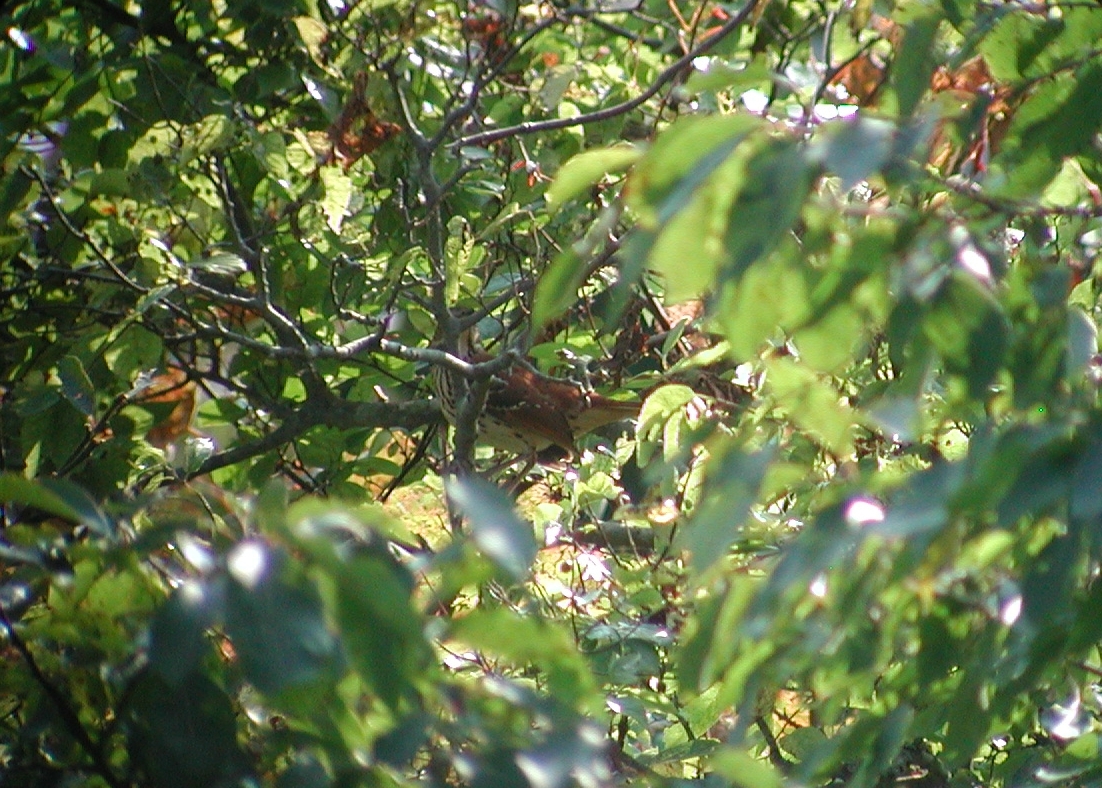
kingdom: Animalia
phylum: Chordata
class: Aves
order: Passeriformes
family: Mimidae
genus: Toxostoma
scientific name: Toxostoma rufum
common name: Brown thrasher
